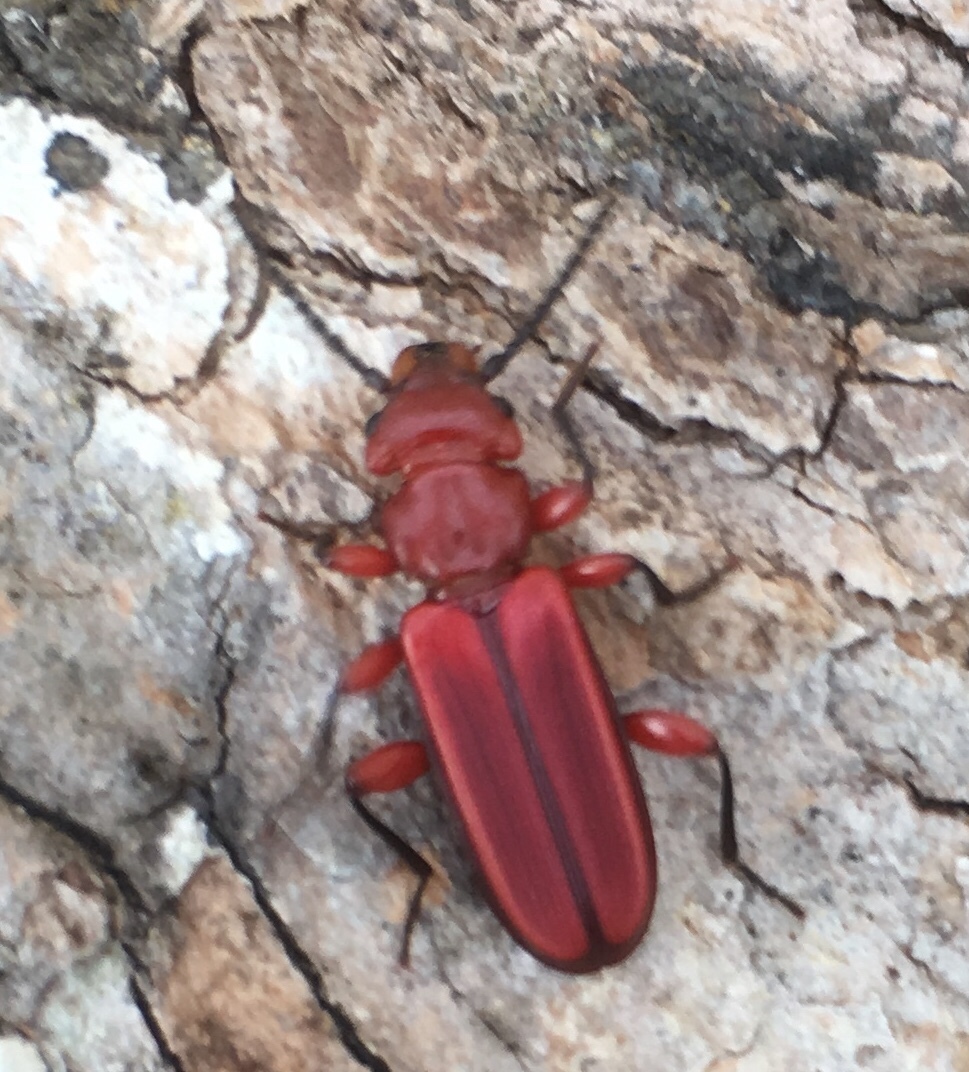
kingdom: Animalia
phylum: Arthropoda
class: Insecta
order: Coleoptera
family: Cucujidae
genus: Cucujus
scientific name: Cucujus clavipes
